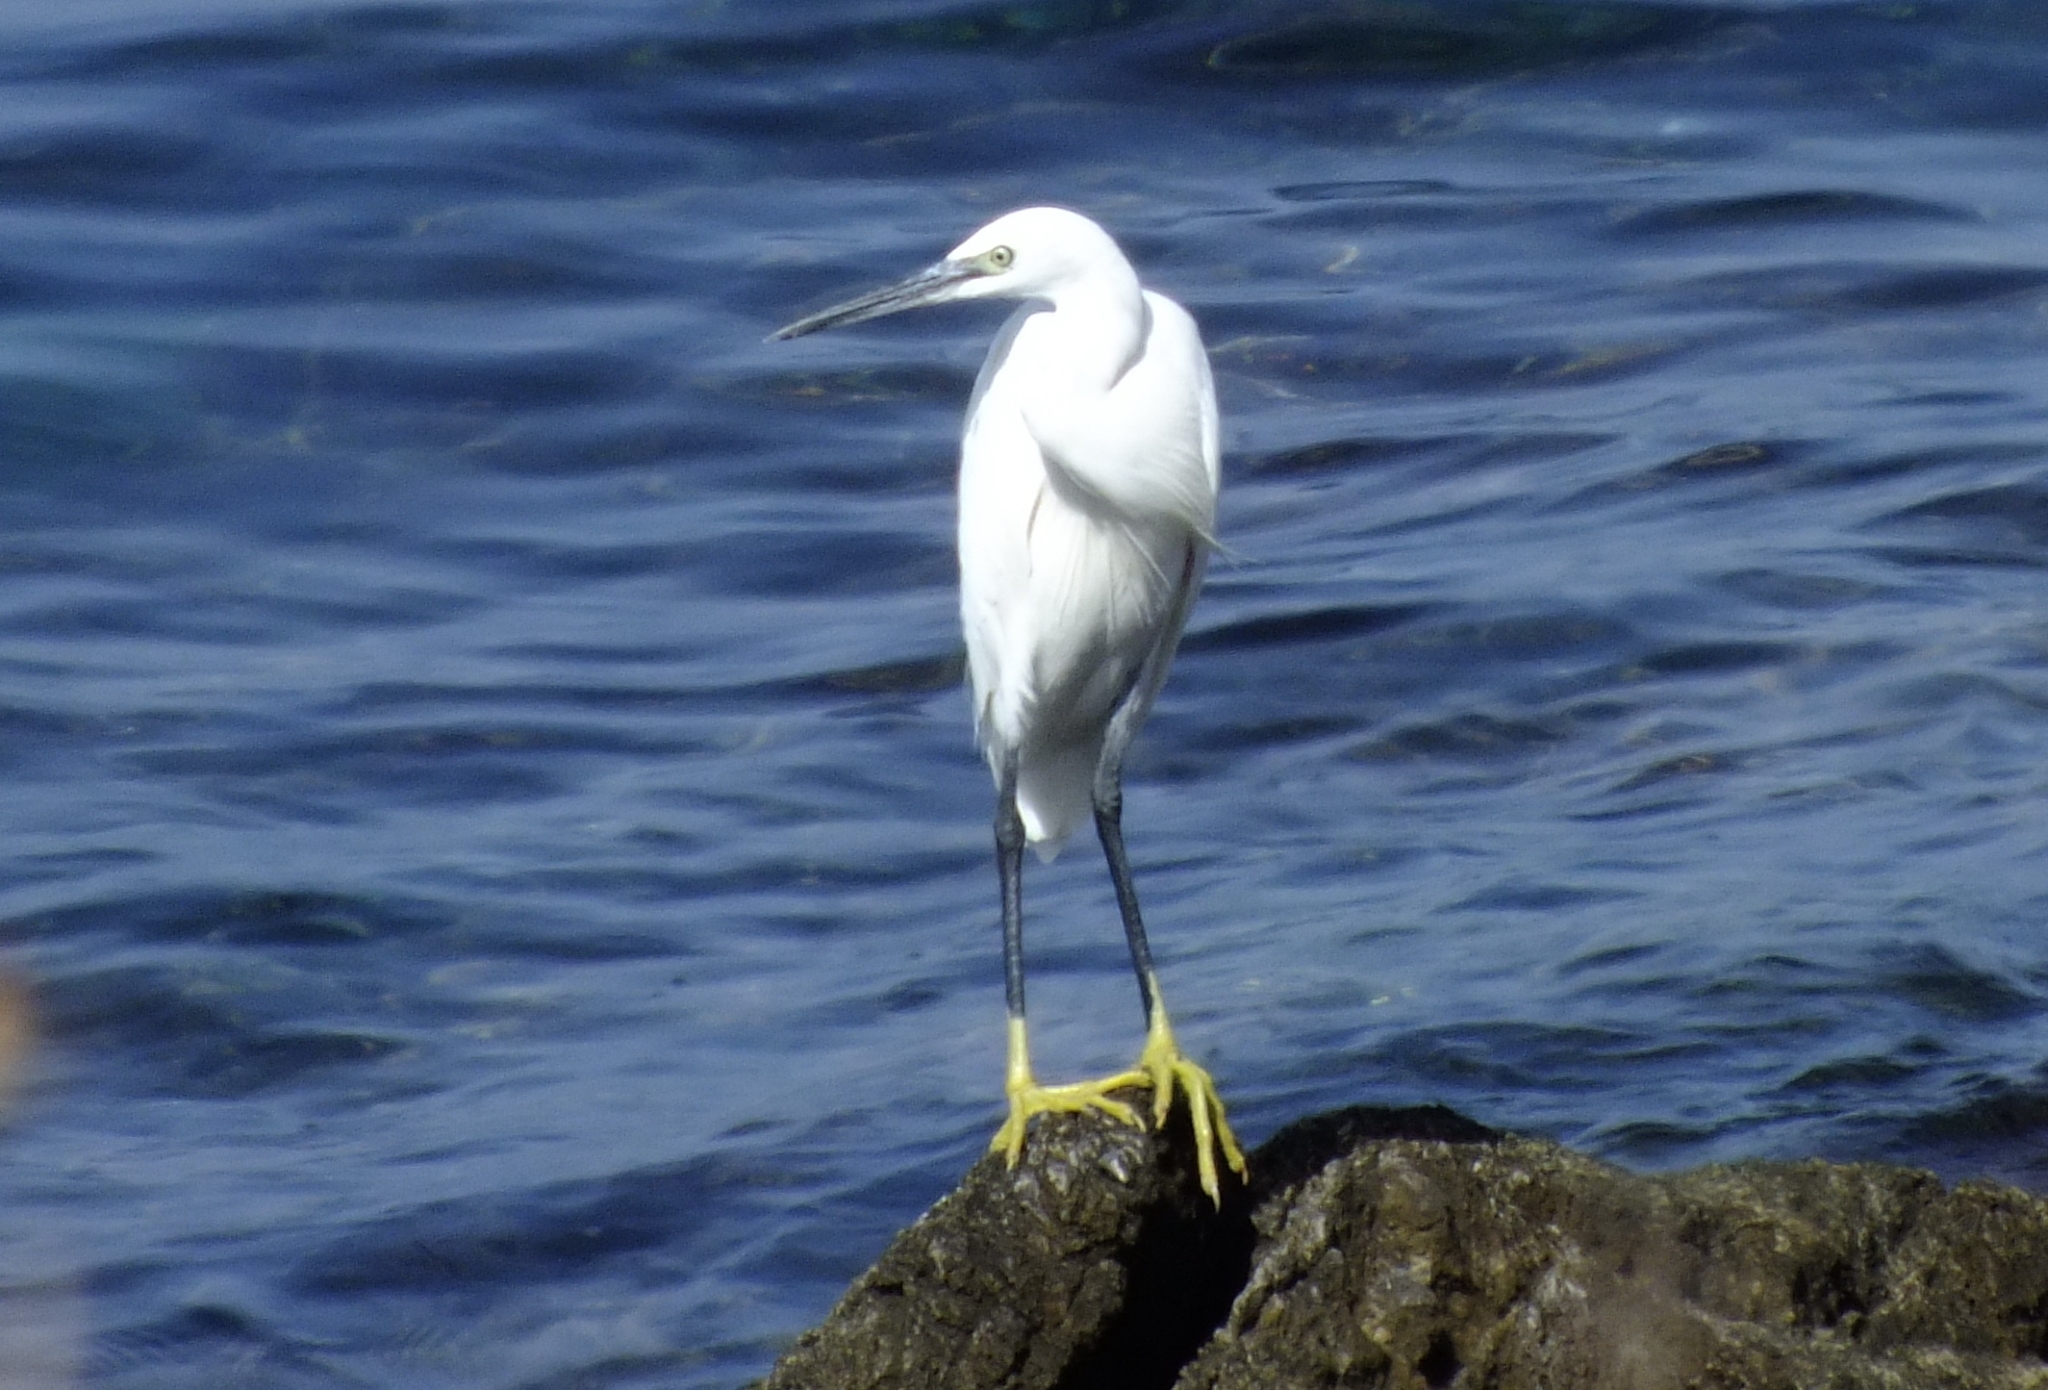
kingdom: Animalia
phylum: Chordata
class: Aves
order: Pelecaniformes
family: Ardeidae
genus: Egretta
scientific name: Egretta garzetta
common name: Little egret
